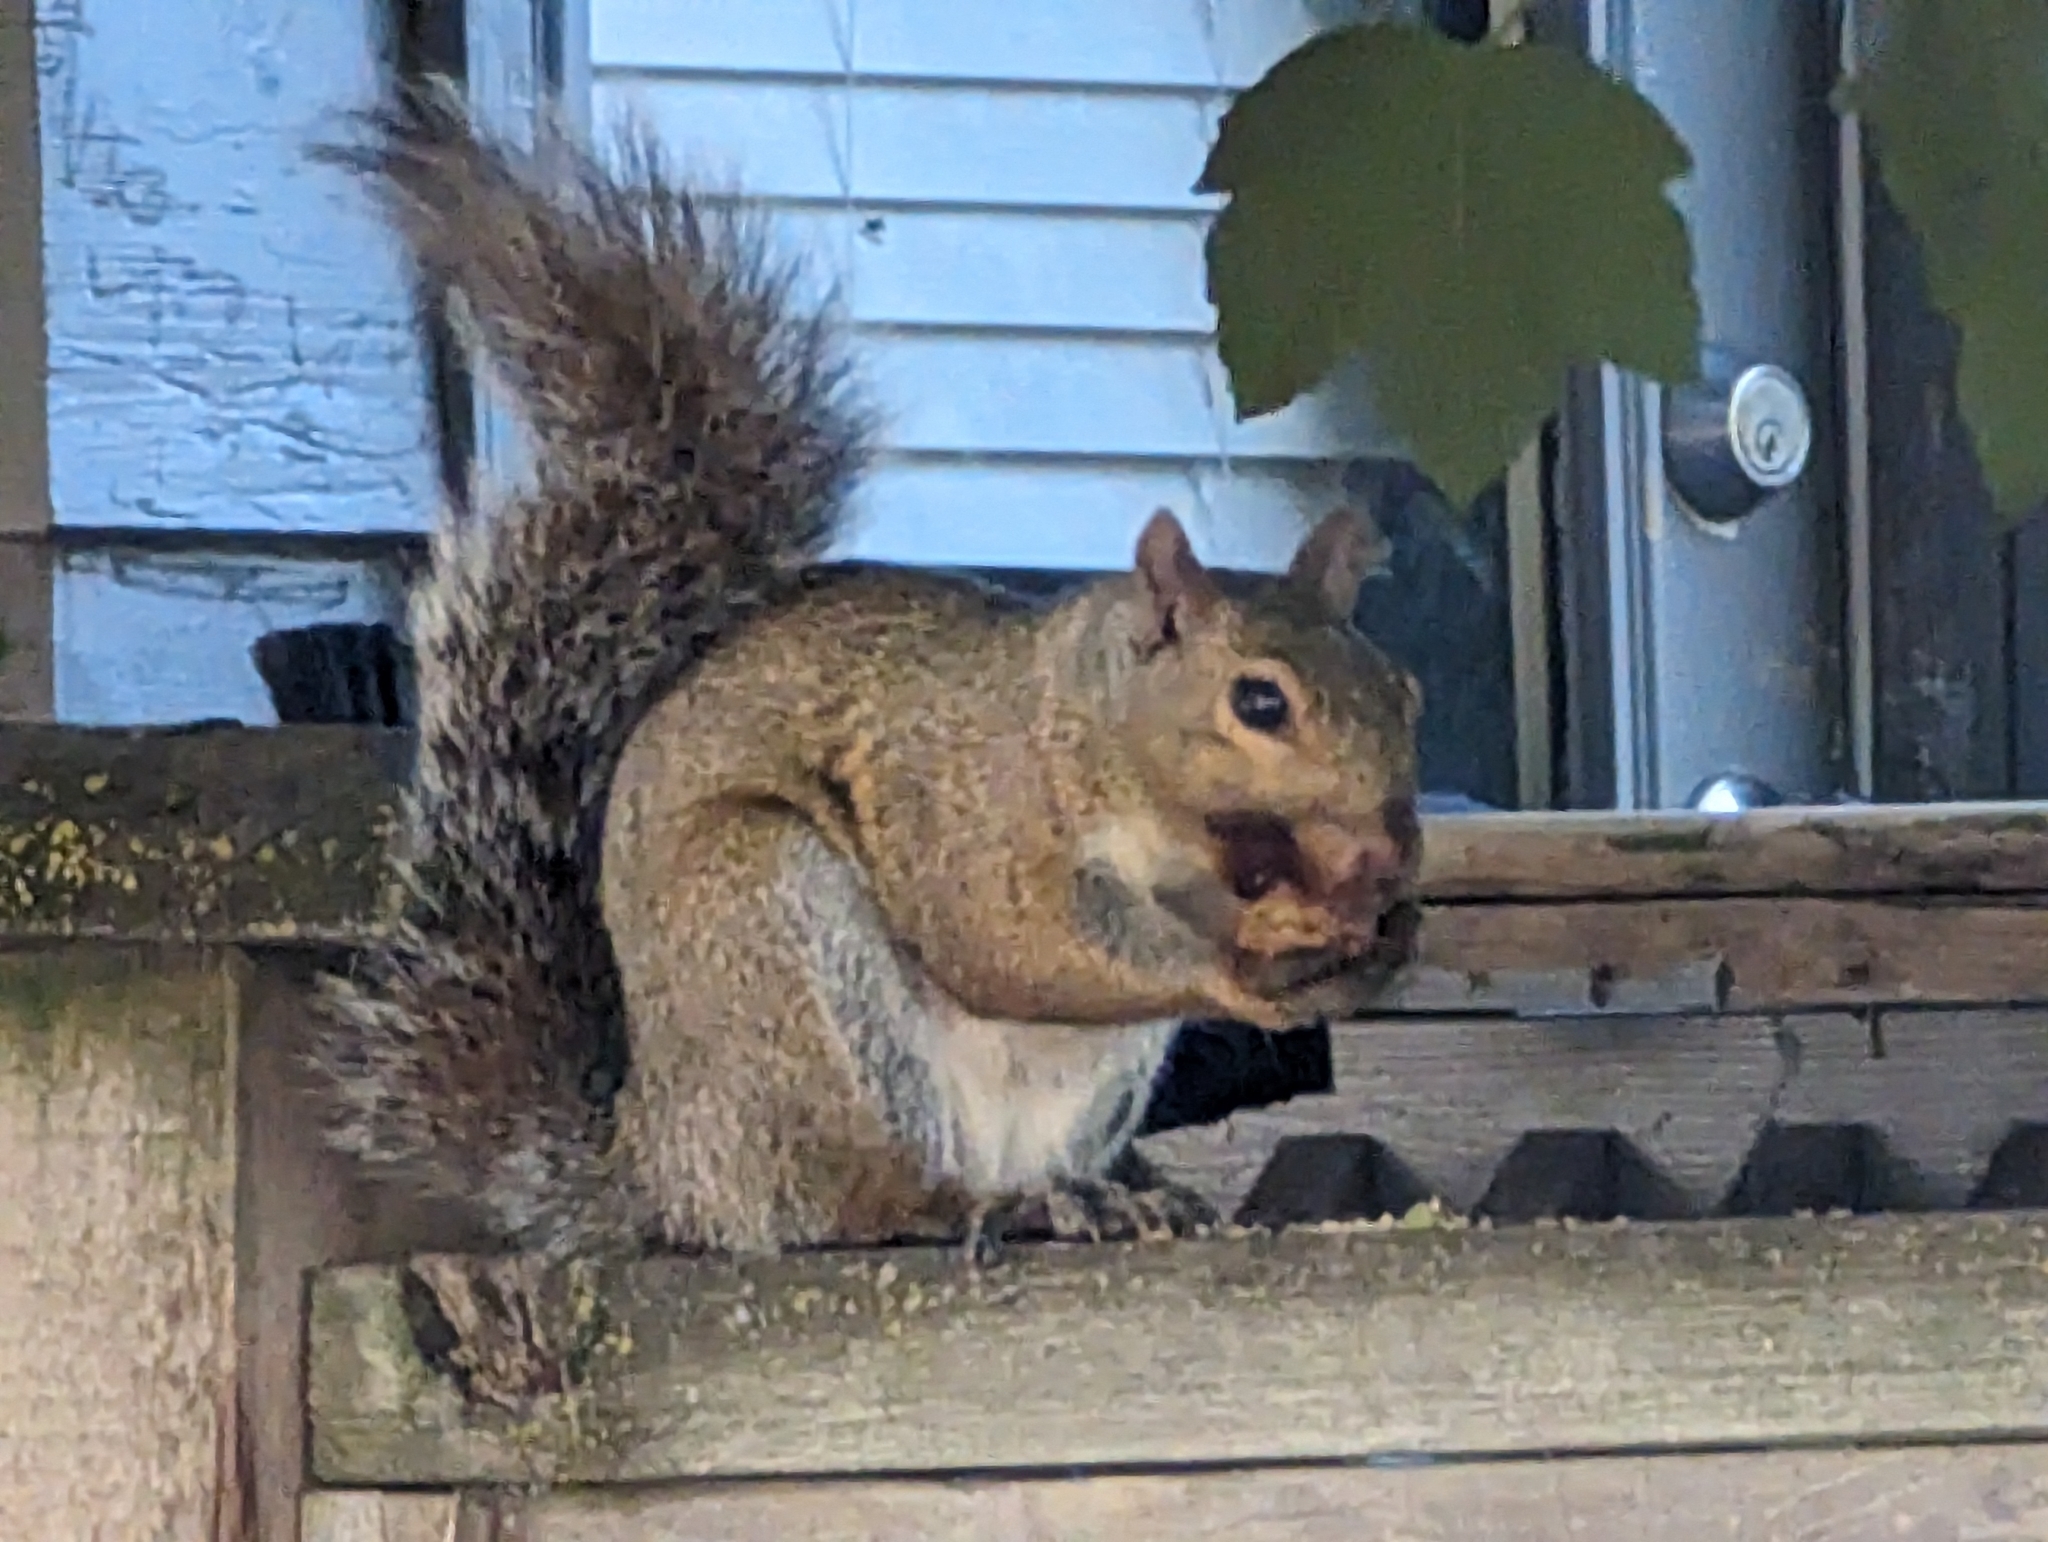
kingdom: Animalia
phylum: Chordata
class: Mammalia
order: Rodentia
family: Sciuridae
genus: Sciurus
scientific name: Sciurus carolinensis
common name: Eastern gray squirrel
